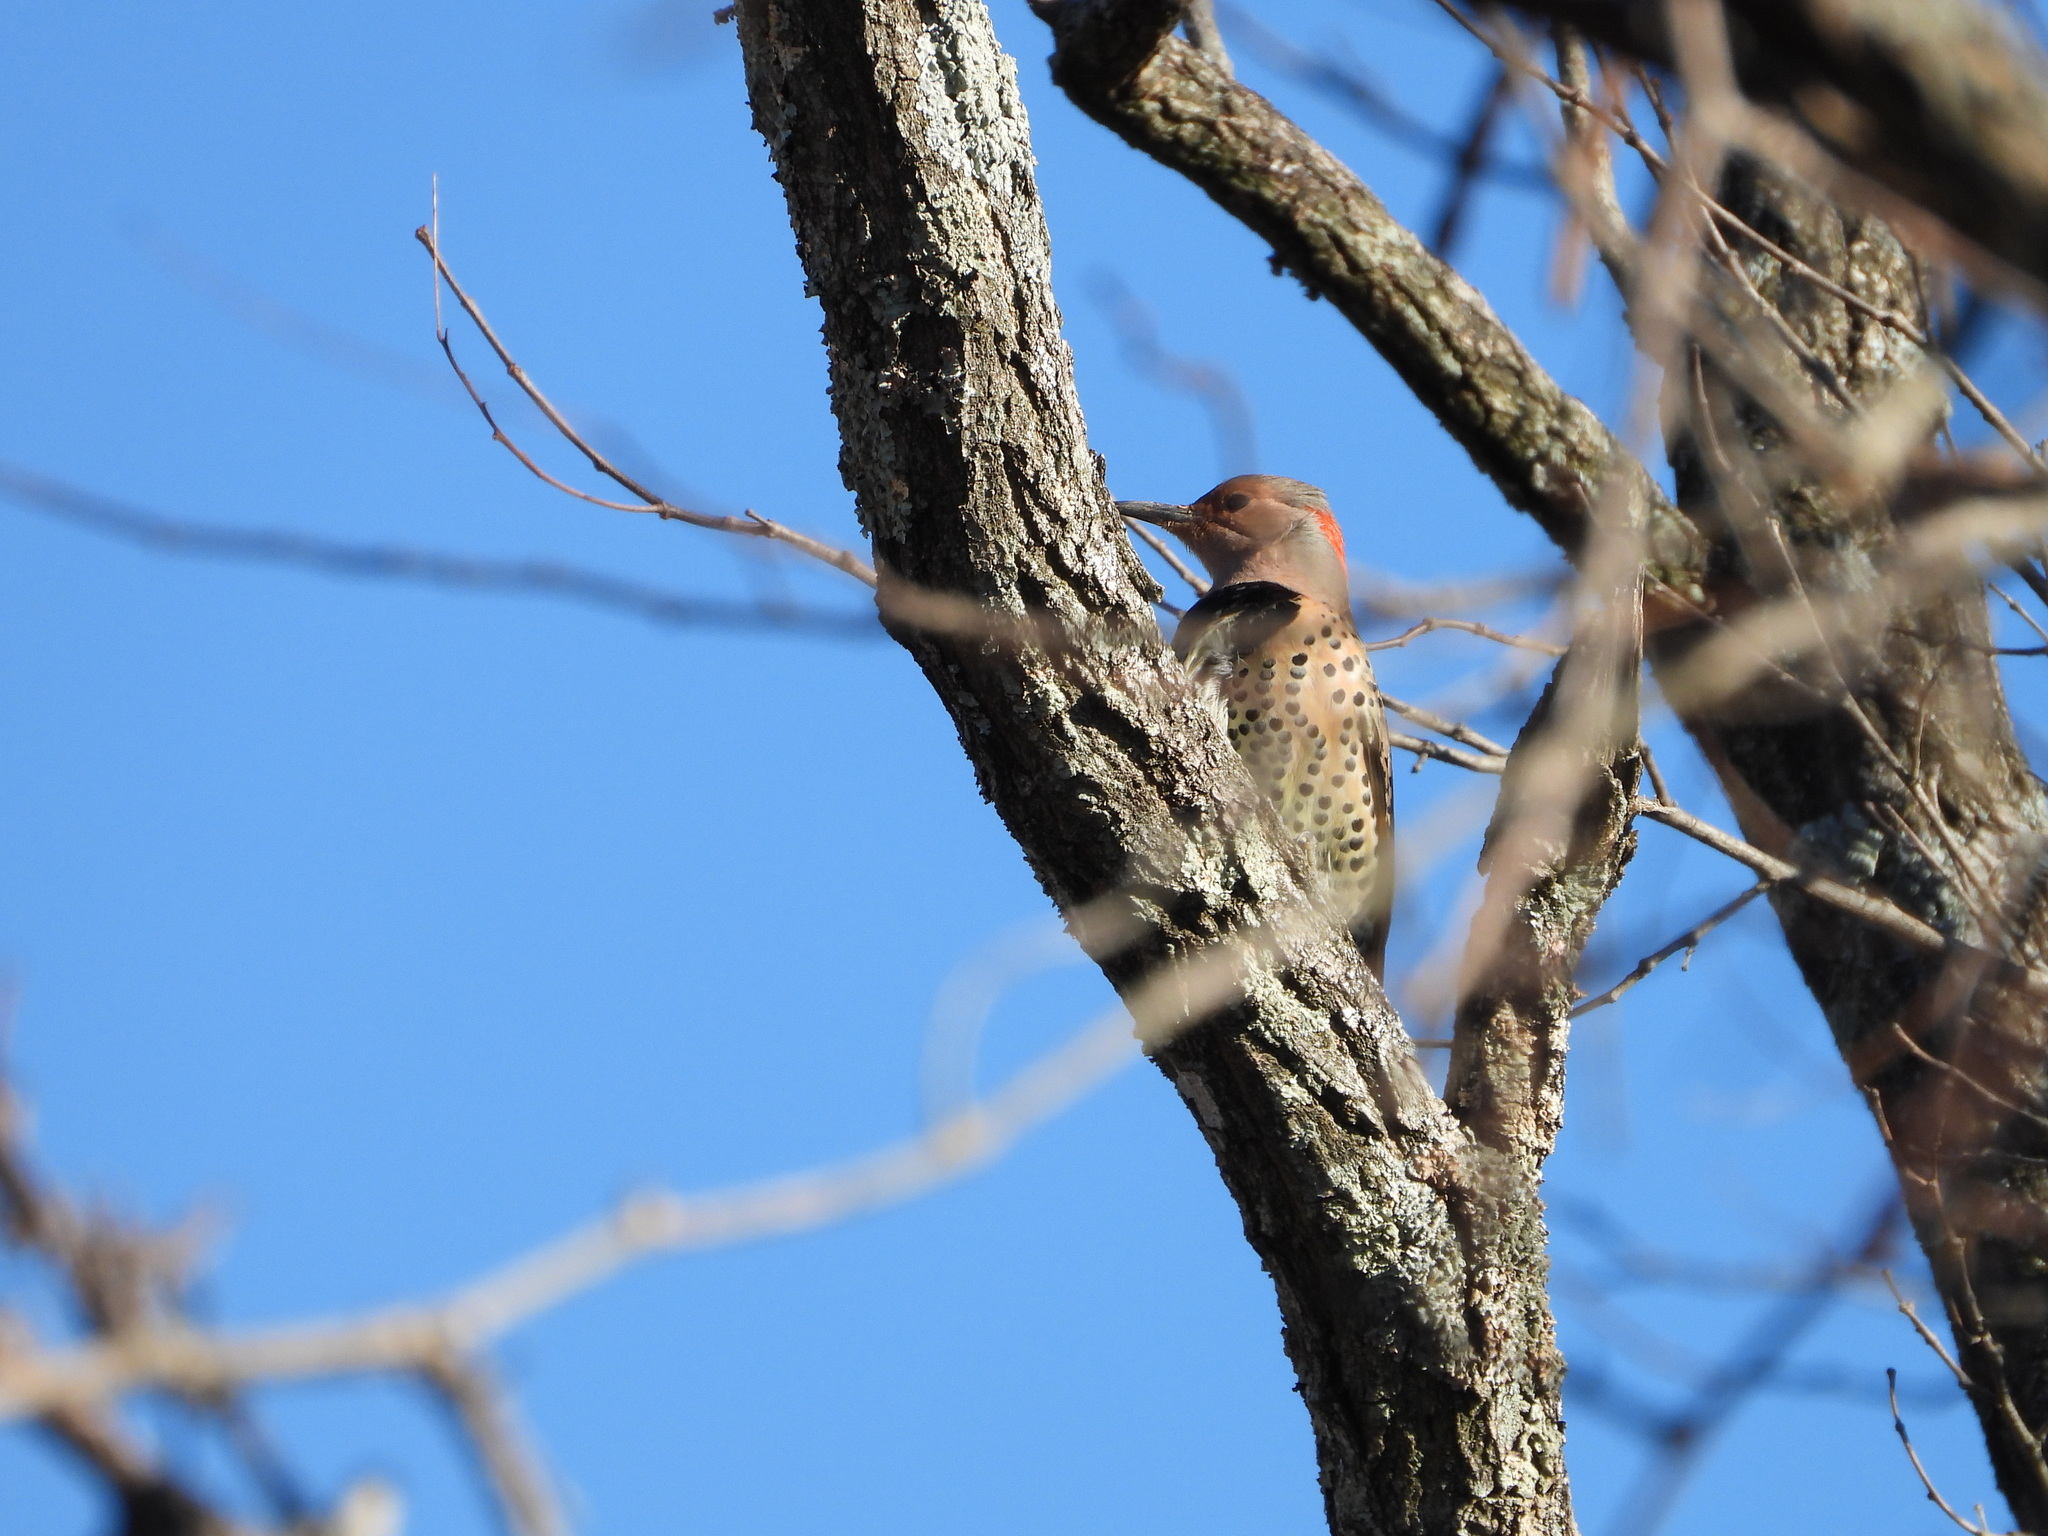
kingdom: Animalia
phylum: Chordata
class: Aves
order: Piciformes
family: Picidae
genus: Colaptes
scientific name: Colaptes auratus
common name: Northern flicker
